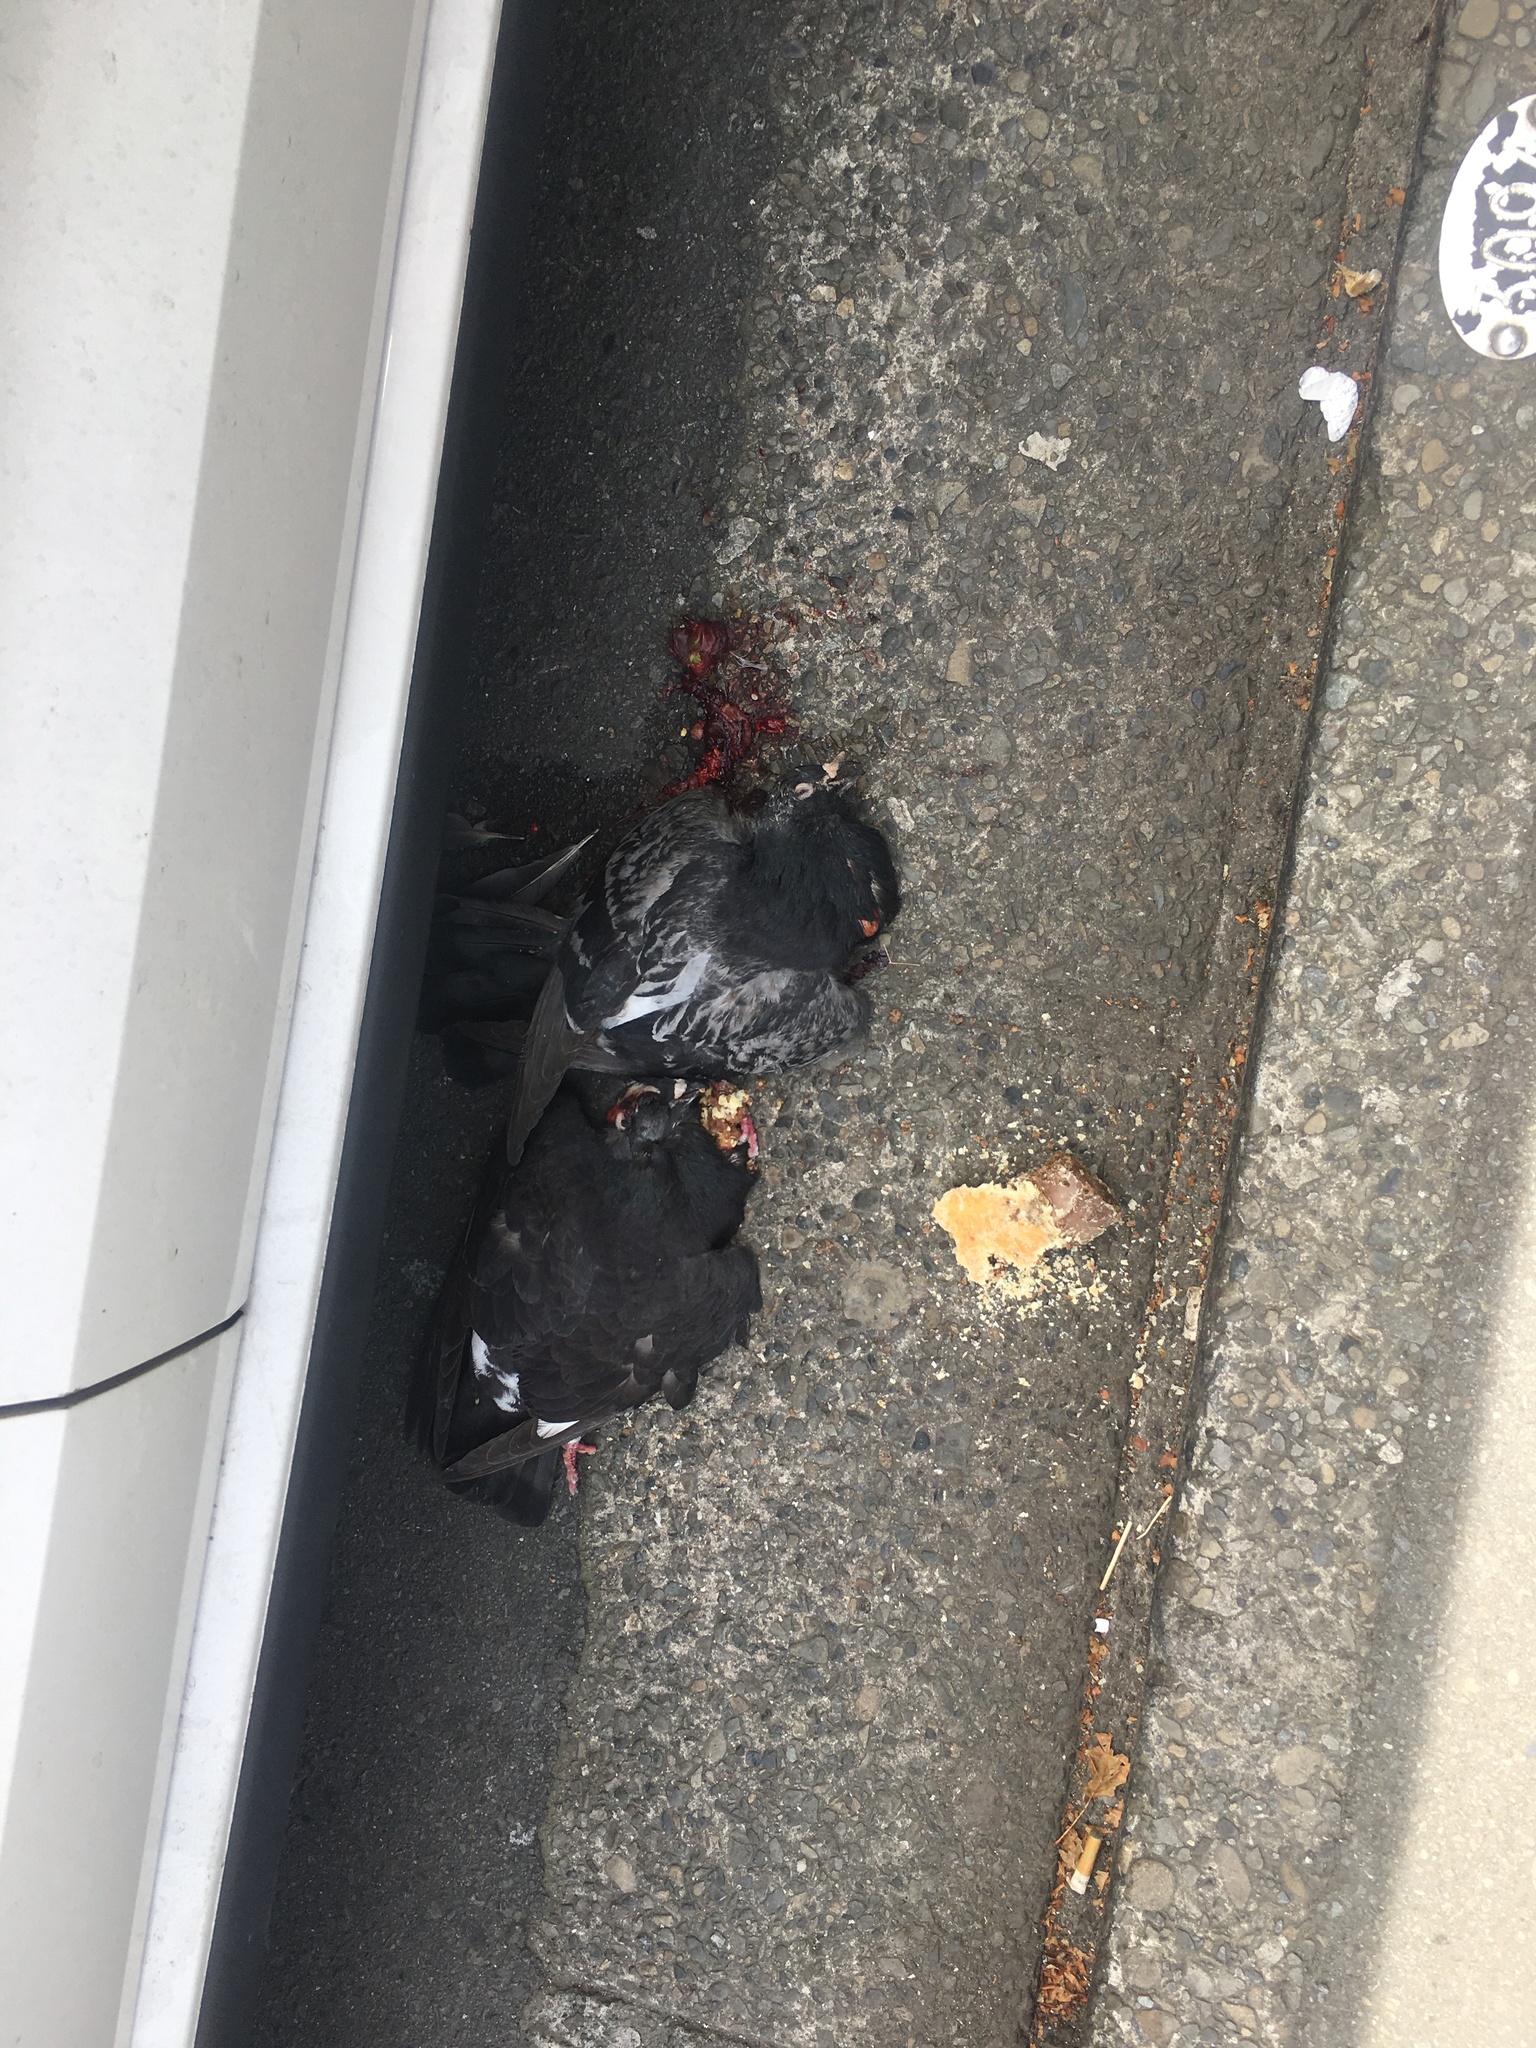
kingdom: Animalia
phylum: Chordata
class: Aves
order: Columbiformes
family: Columbidae
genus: Columba
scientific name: Columba livia
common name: Rock pigeon
